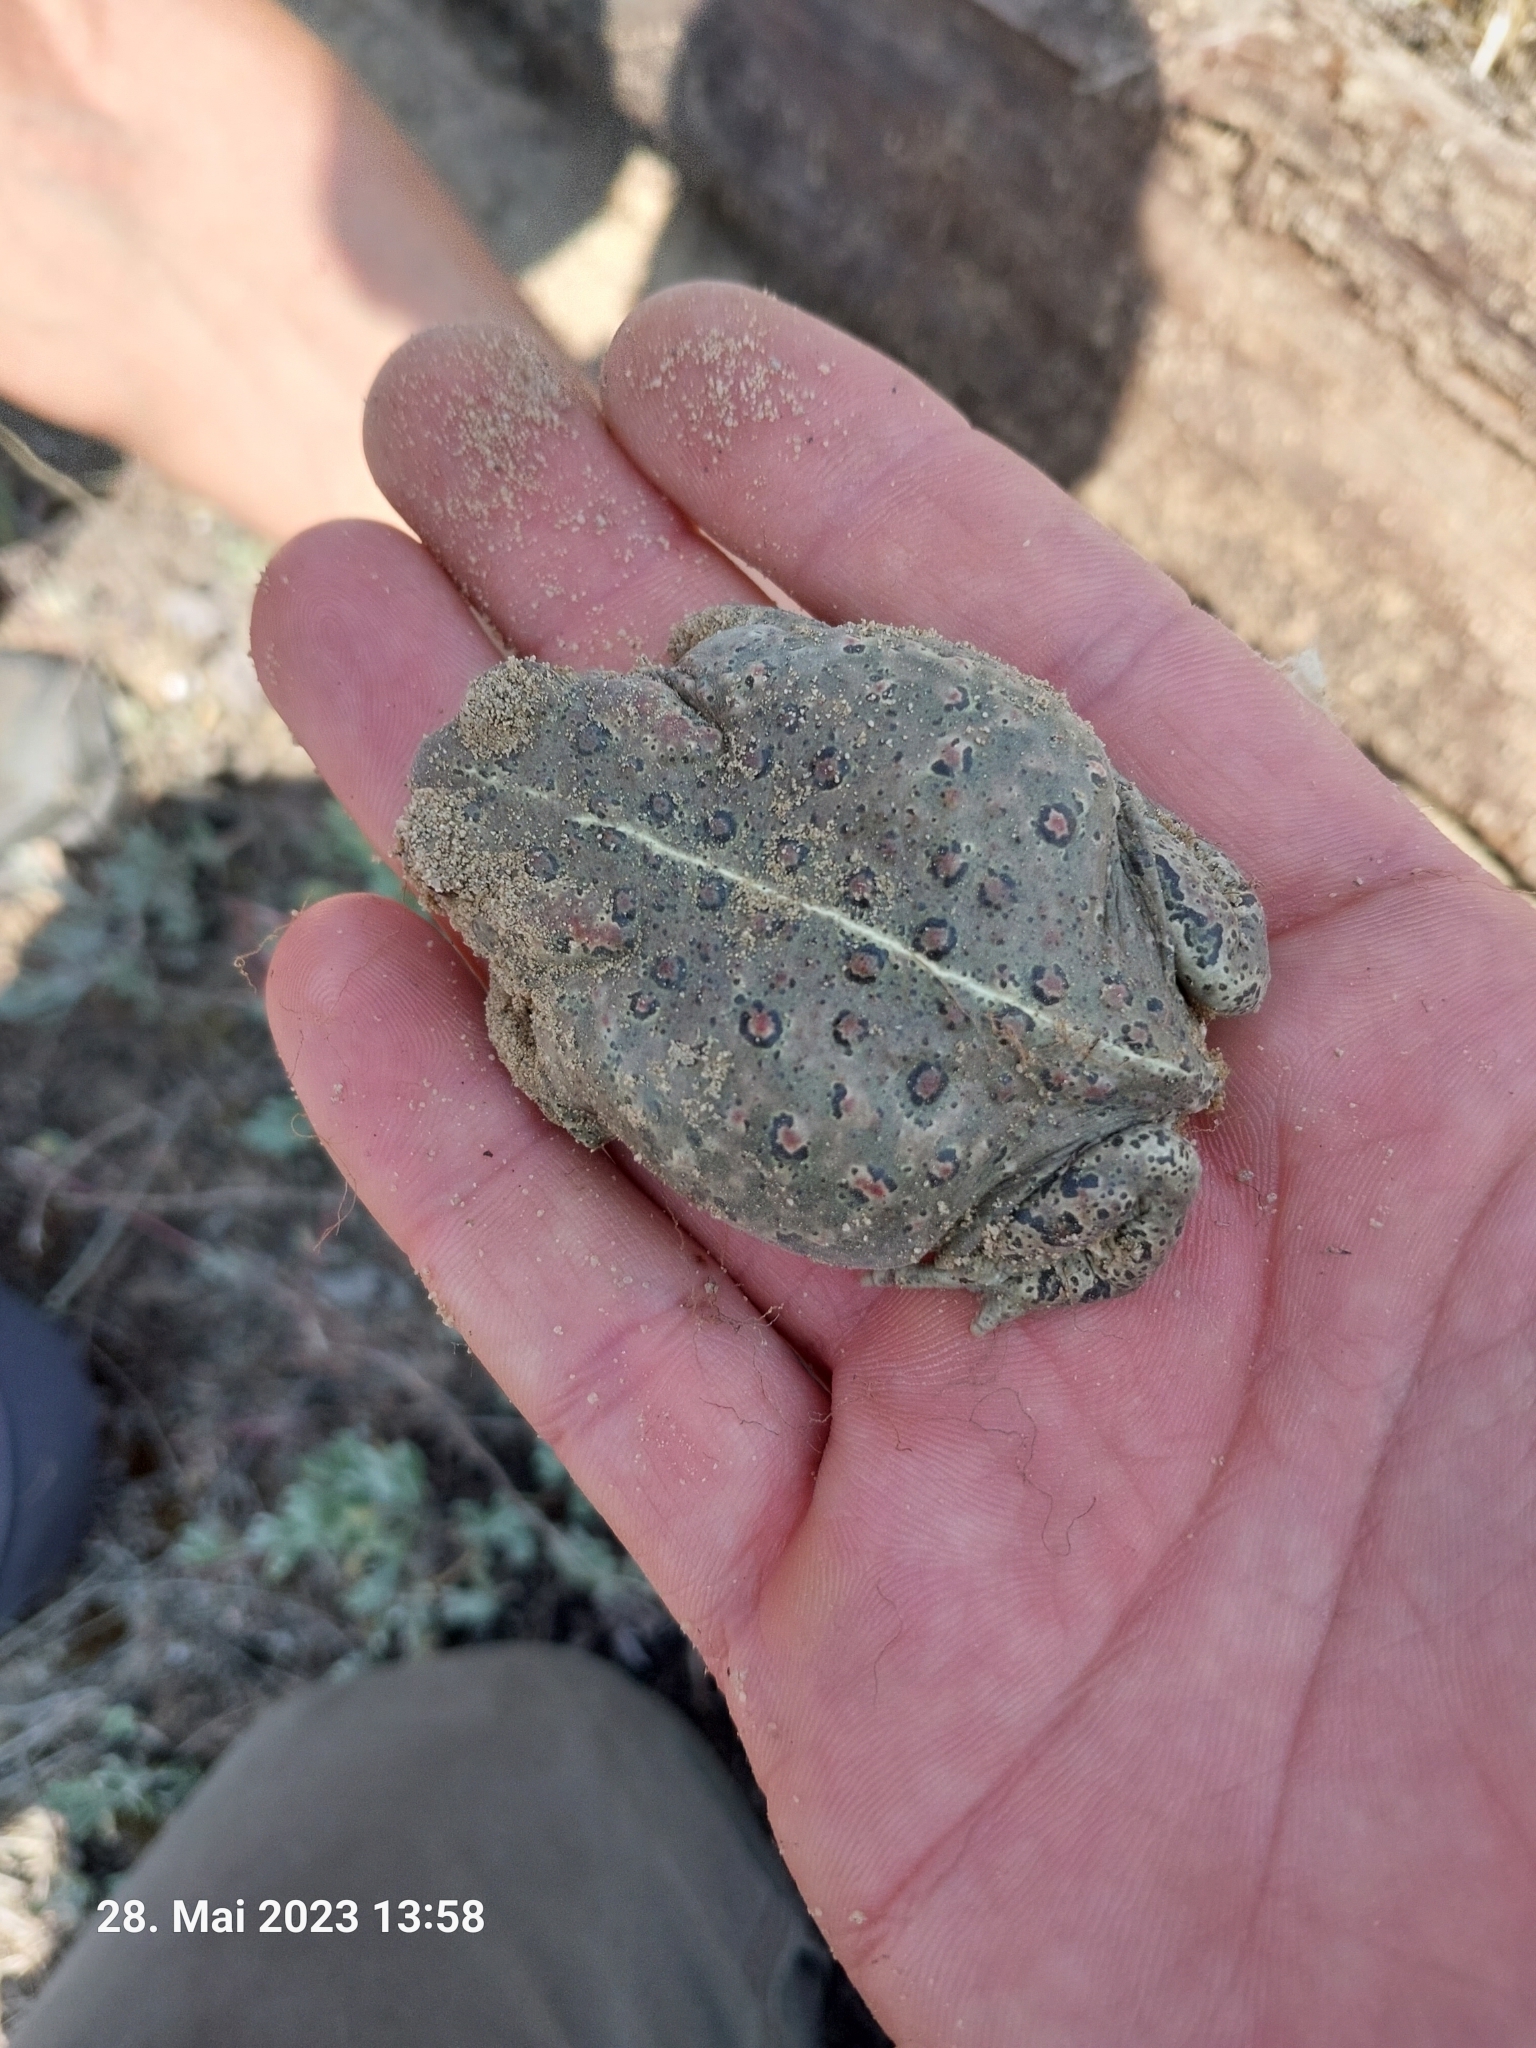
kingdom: Animalia
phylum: Chordata
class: Amphibia
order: Anura
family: Bufonidae
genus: Epidalea
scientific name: Epidalea calamita
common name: Natterjack toad
